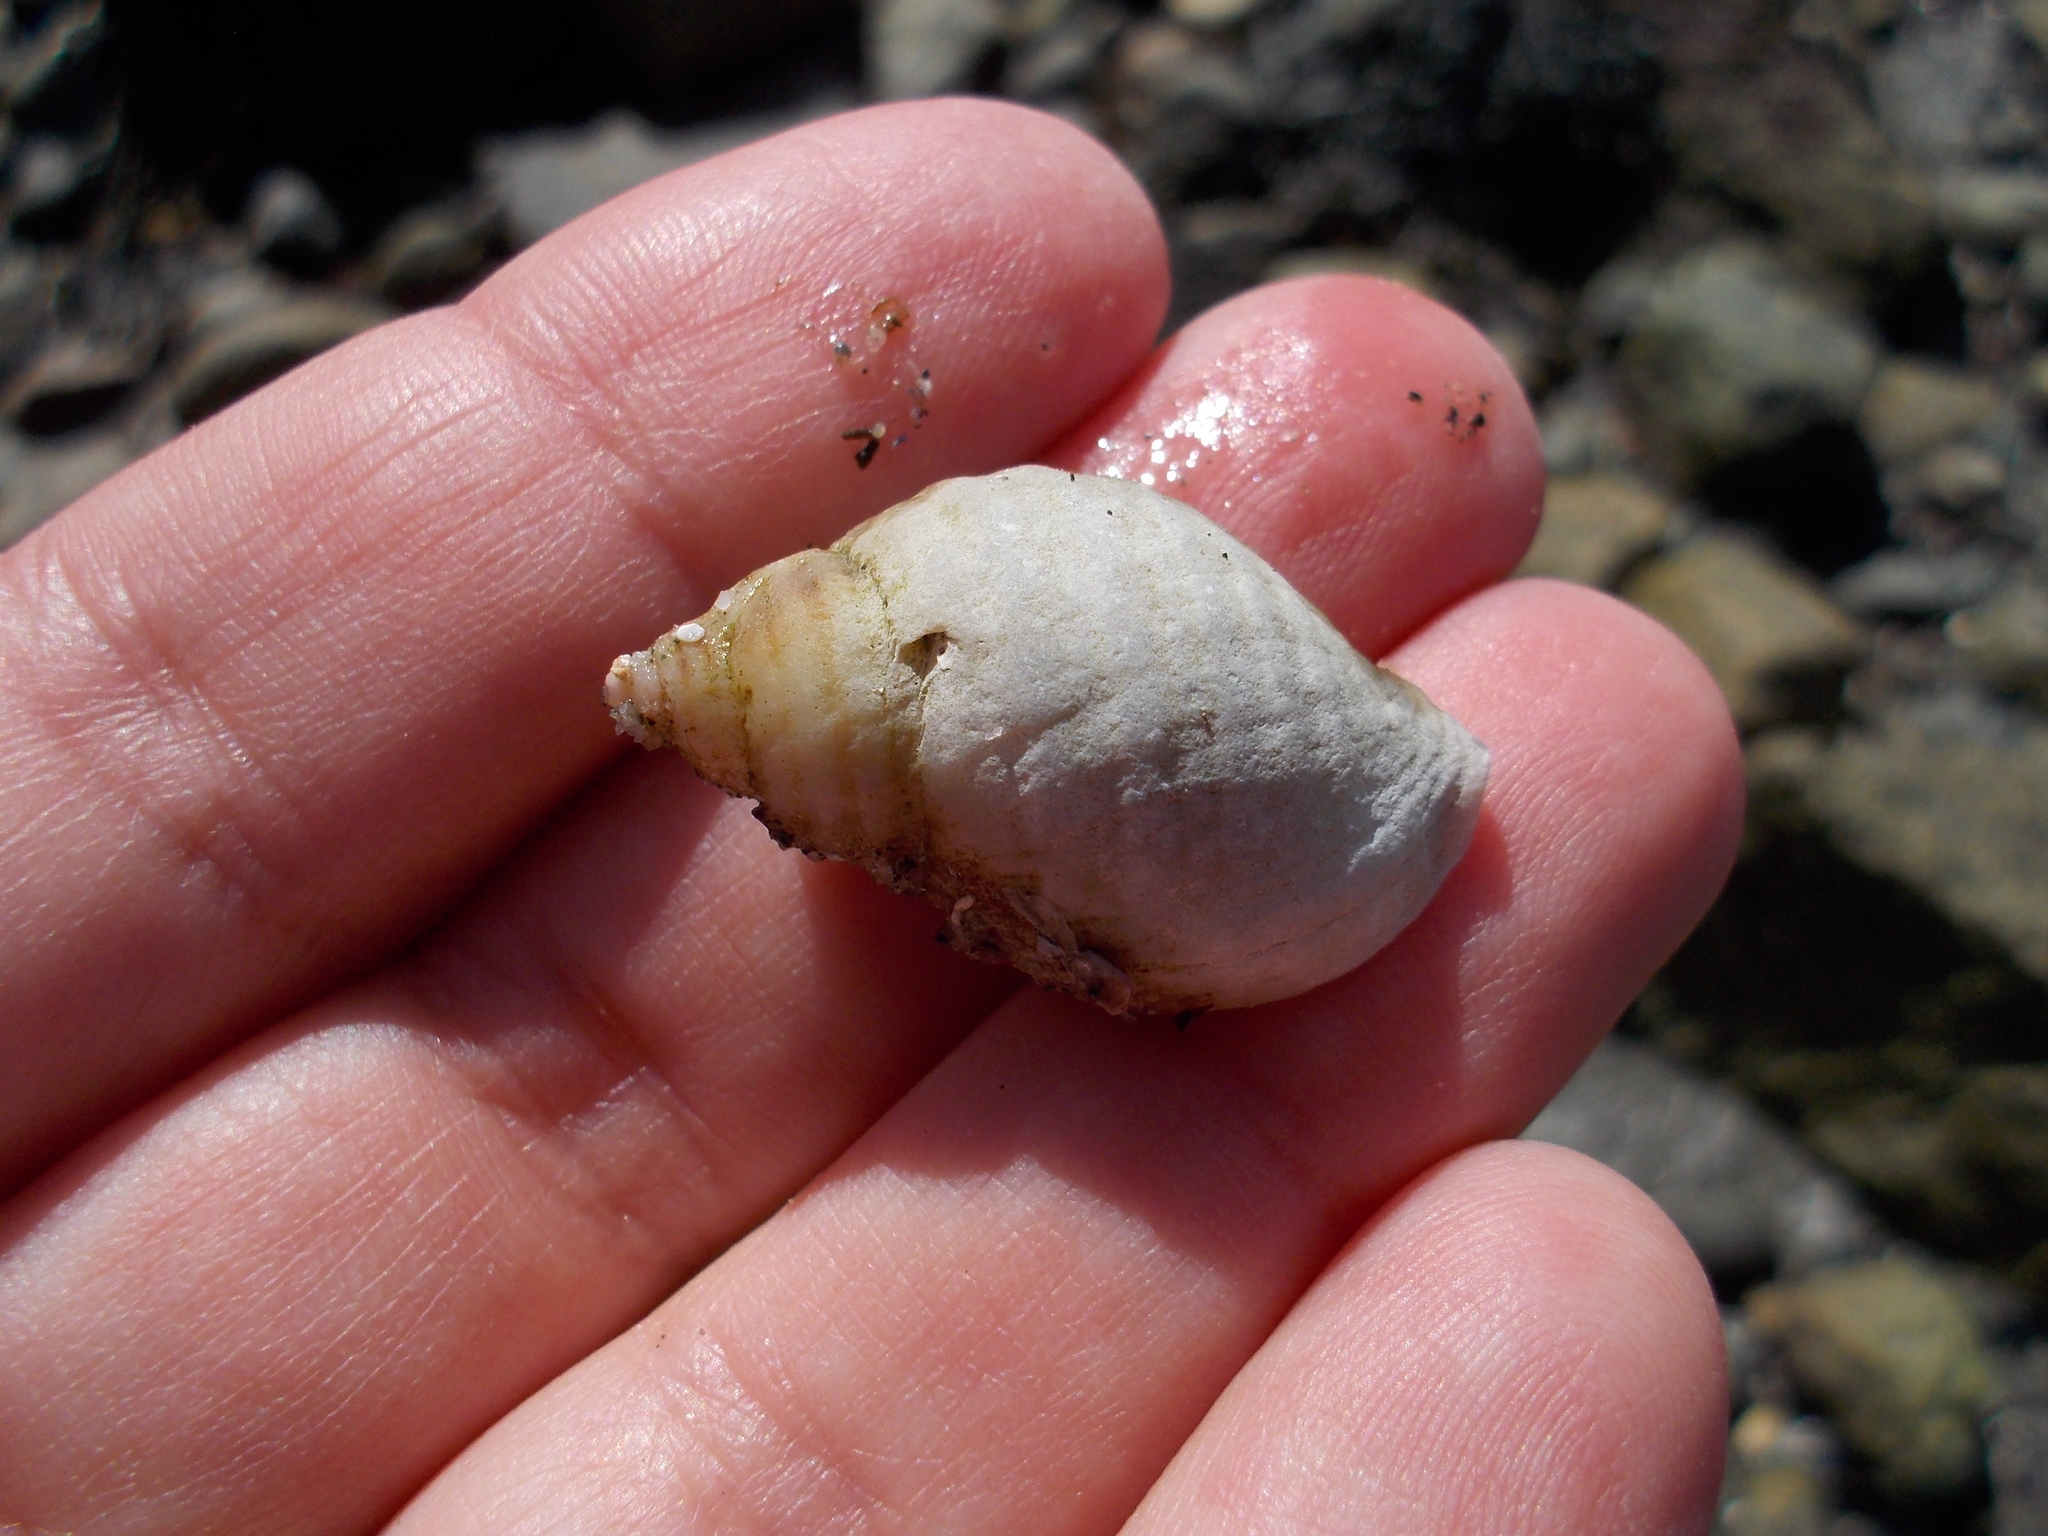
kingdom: Animalia
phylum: Mollusca
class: Gastropoda
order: Neogastropoda
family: Muricidae
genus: Nucella
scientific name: Nucella lapillus
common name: Dog whelk
